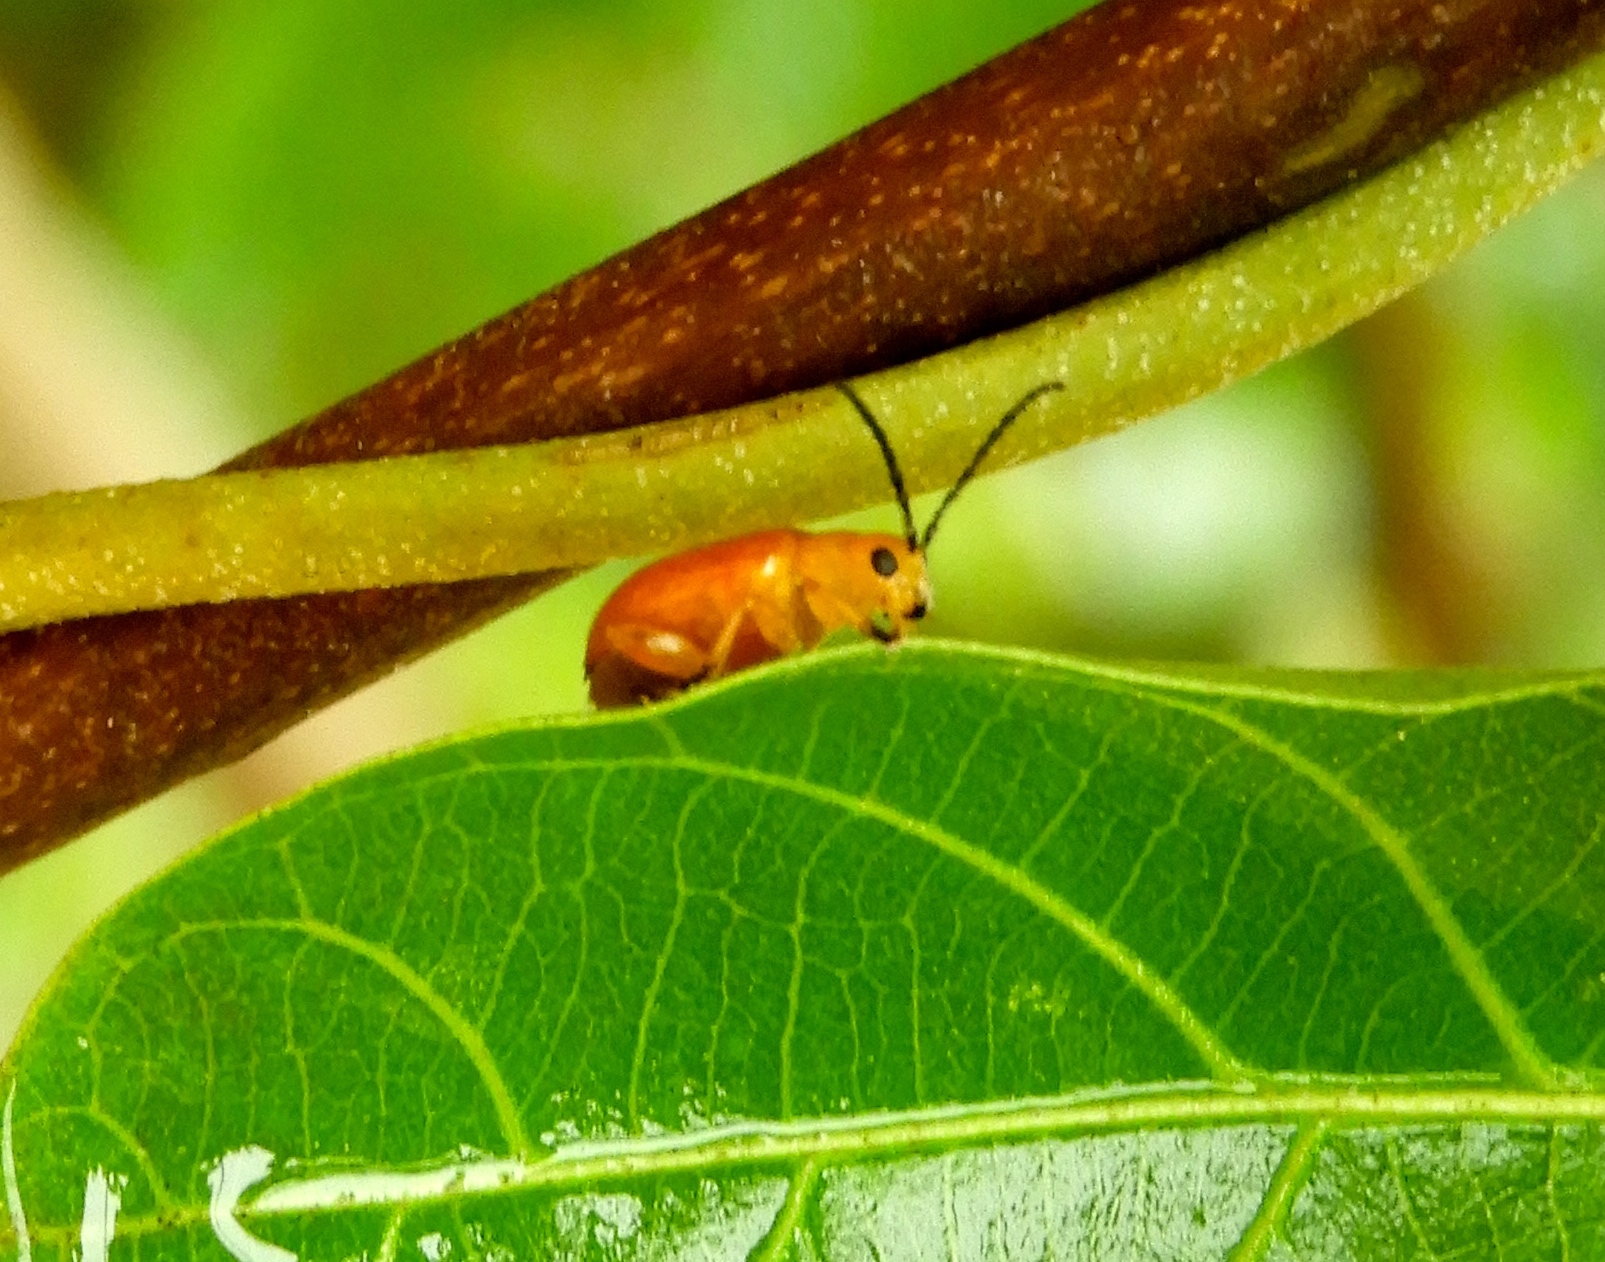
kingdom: Animalia
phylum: Arthropoda
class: Insecta
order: Coleoptera
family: Chrysomelidae
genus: Cacoscelis
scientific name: Cacoscelis
